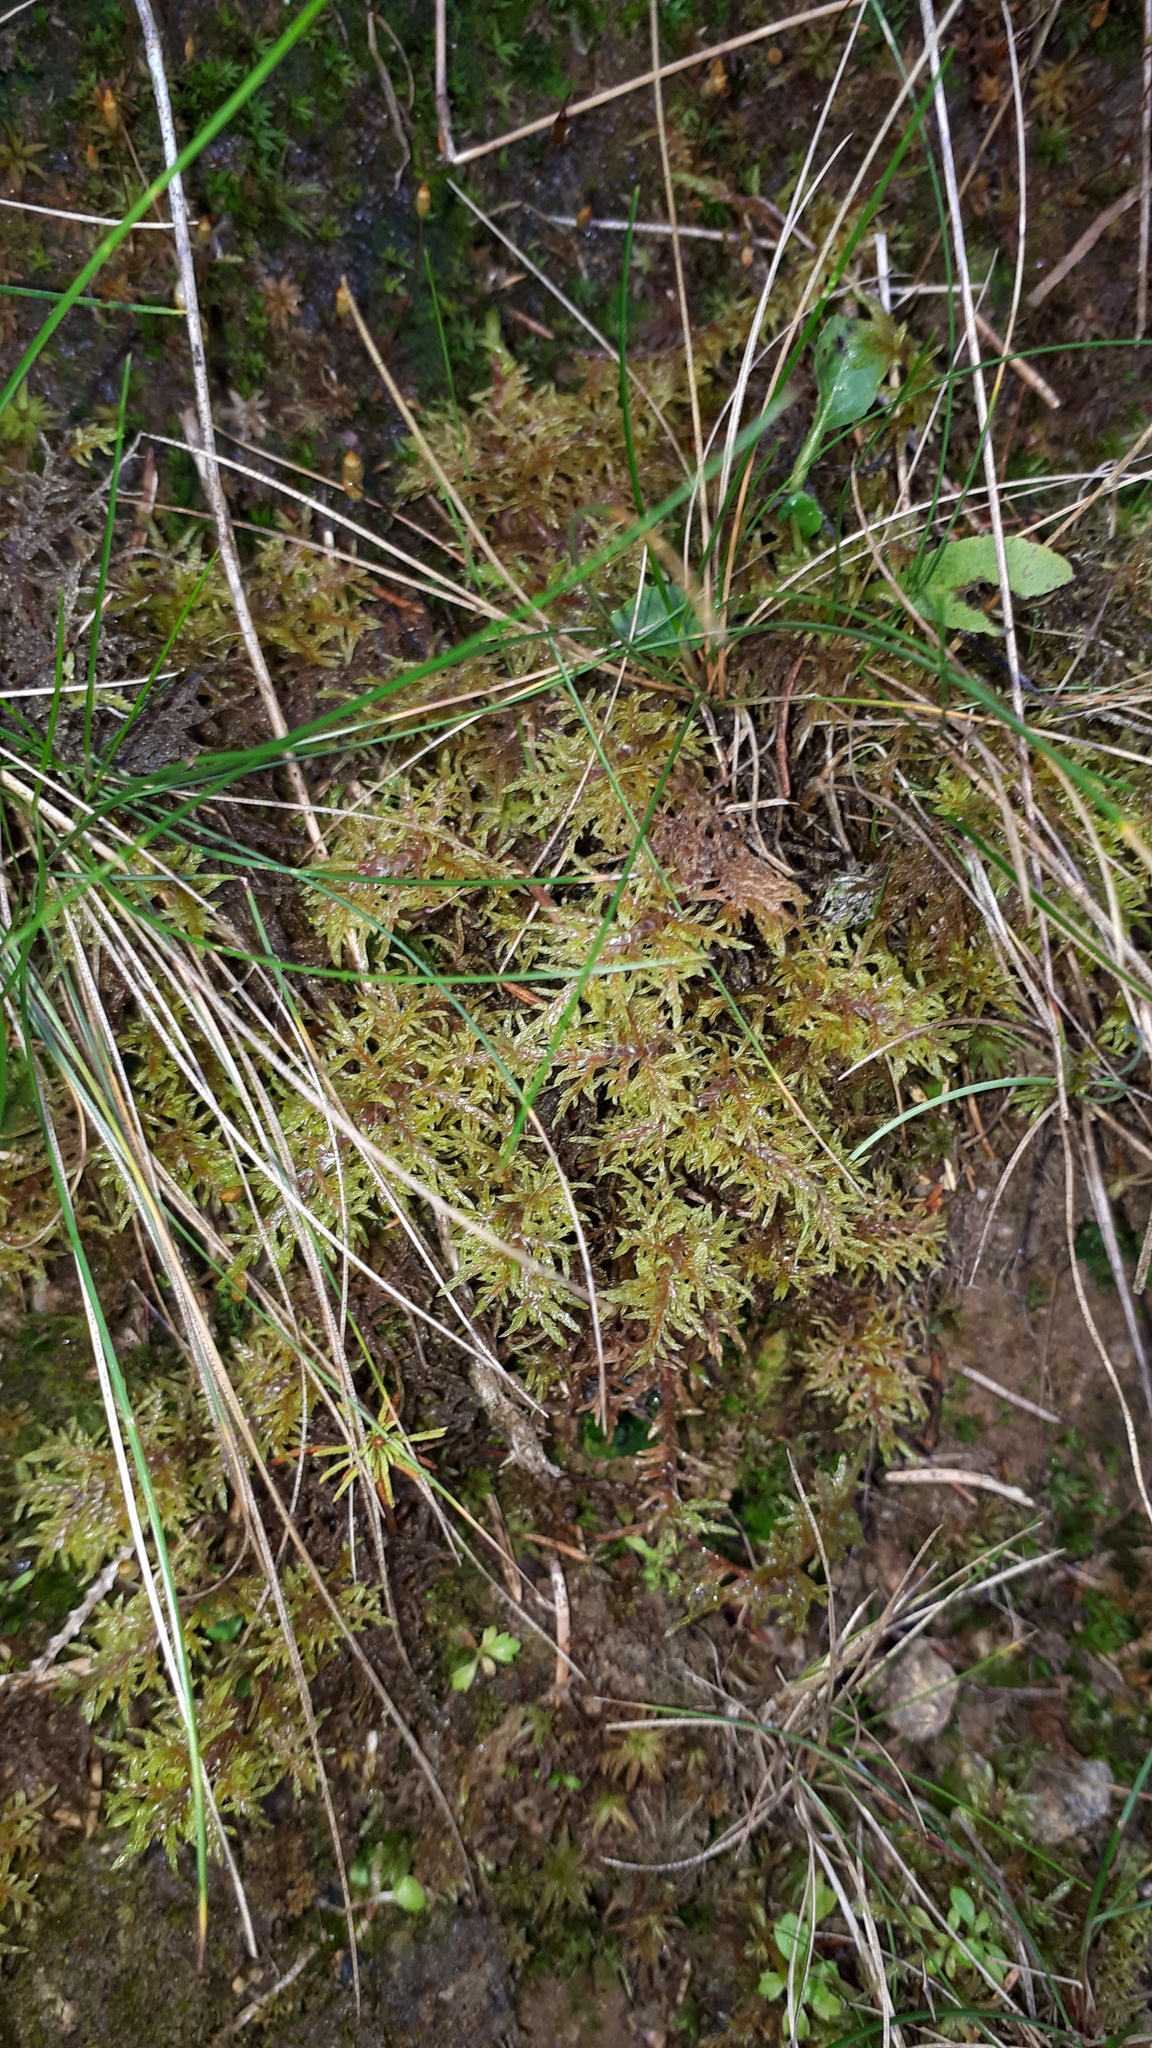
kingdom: Plantae
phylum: Bryophyta
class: Bryopsida
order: Hypnales
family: Hylocomiaceae
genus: Hylocomium
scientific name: Hylocomium splendens
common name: Stairstep moss
